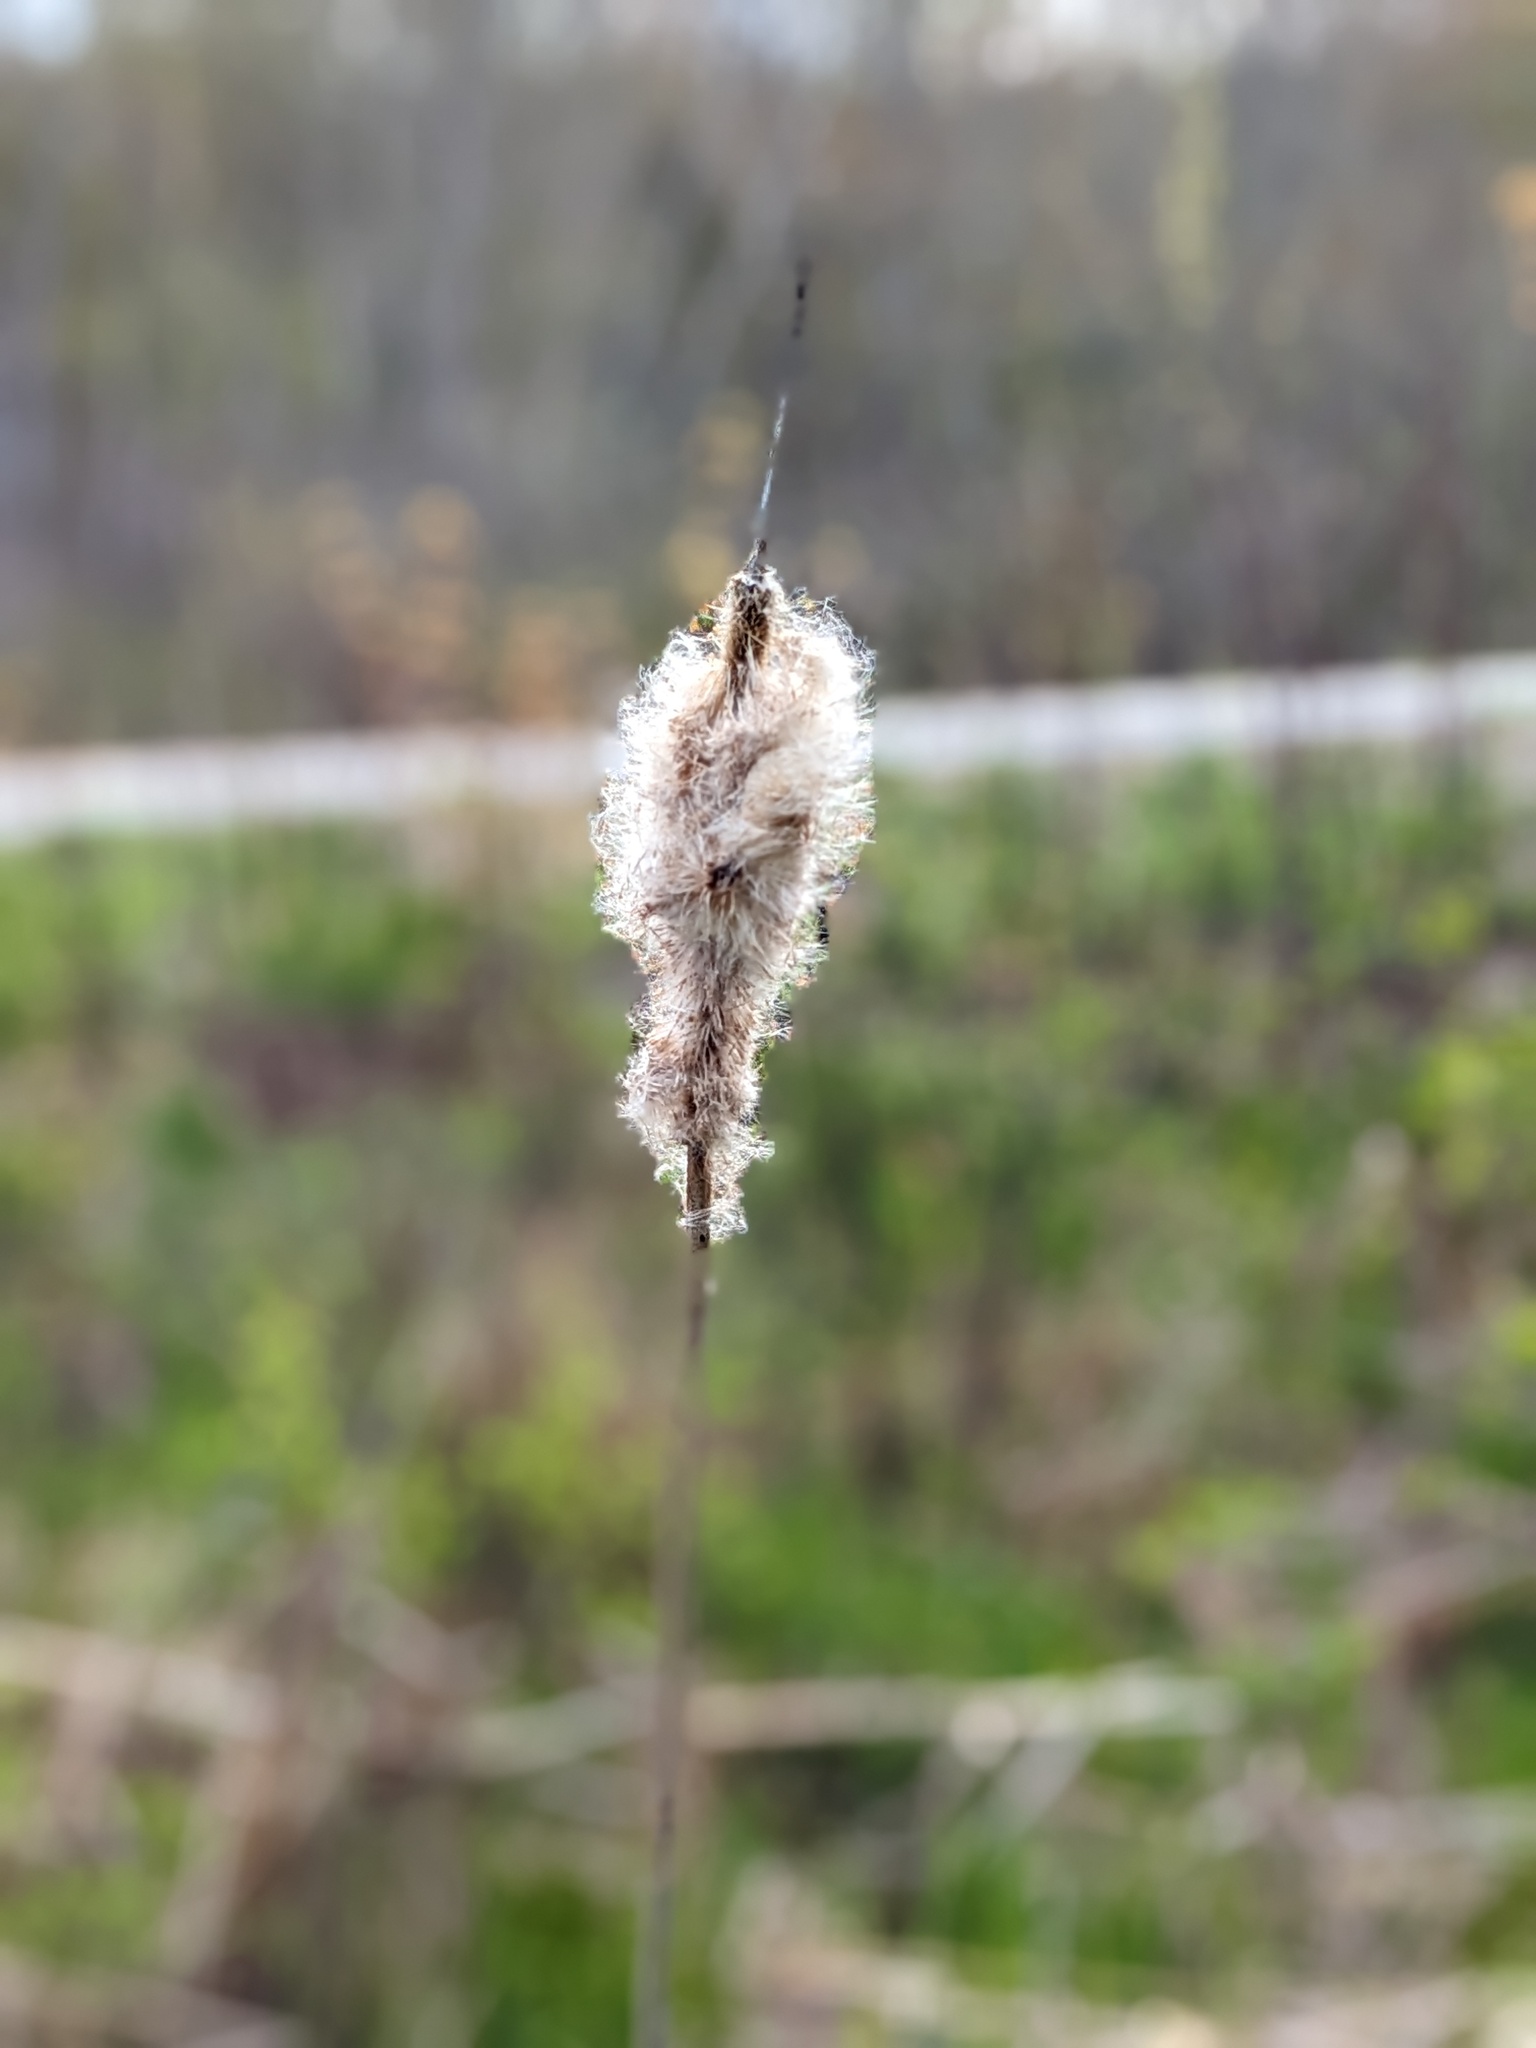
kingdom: Plantae
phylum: Tracheophyta
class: Liliopsida
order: Poales
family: Typhaceae
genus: Typha
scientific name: Typha latifolia
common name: Broadleaf cattail
